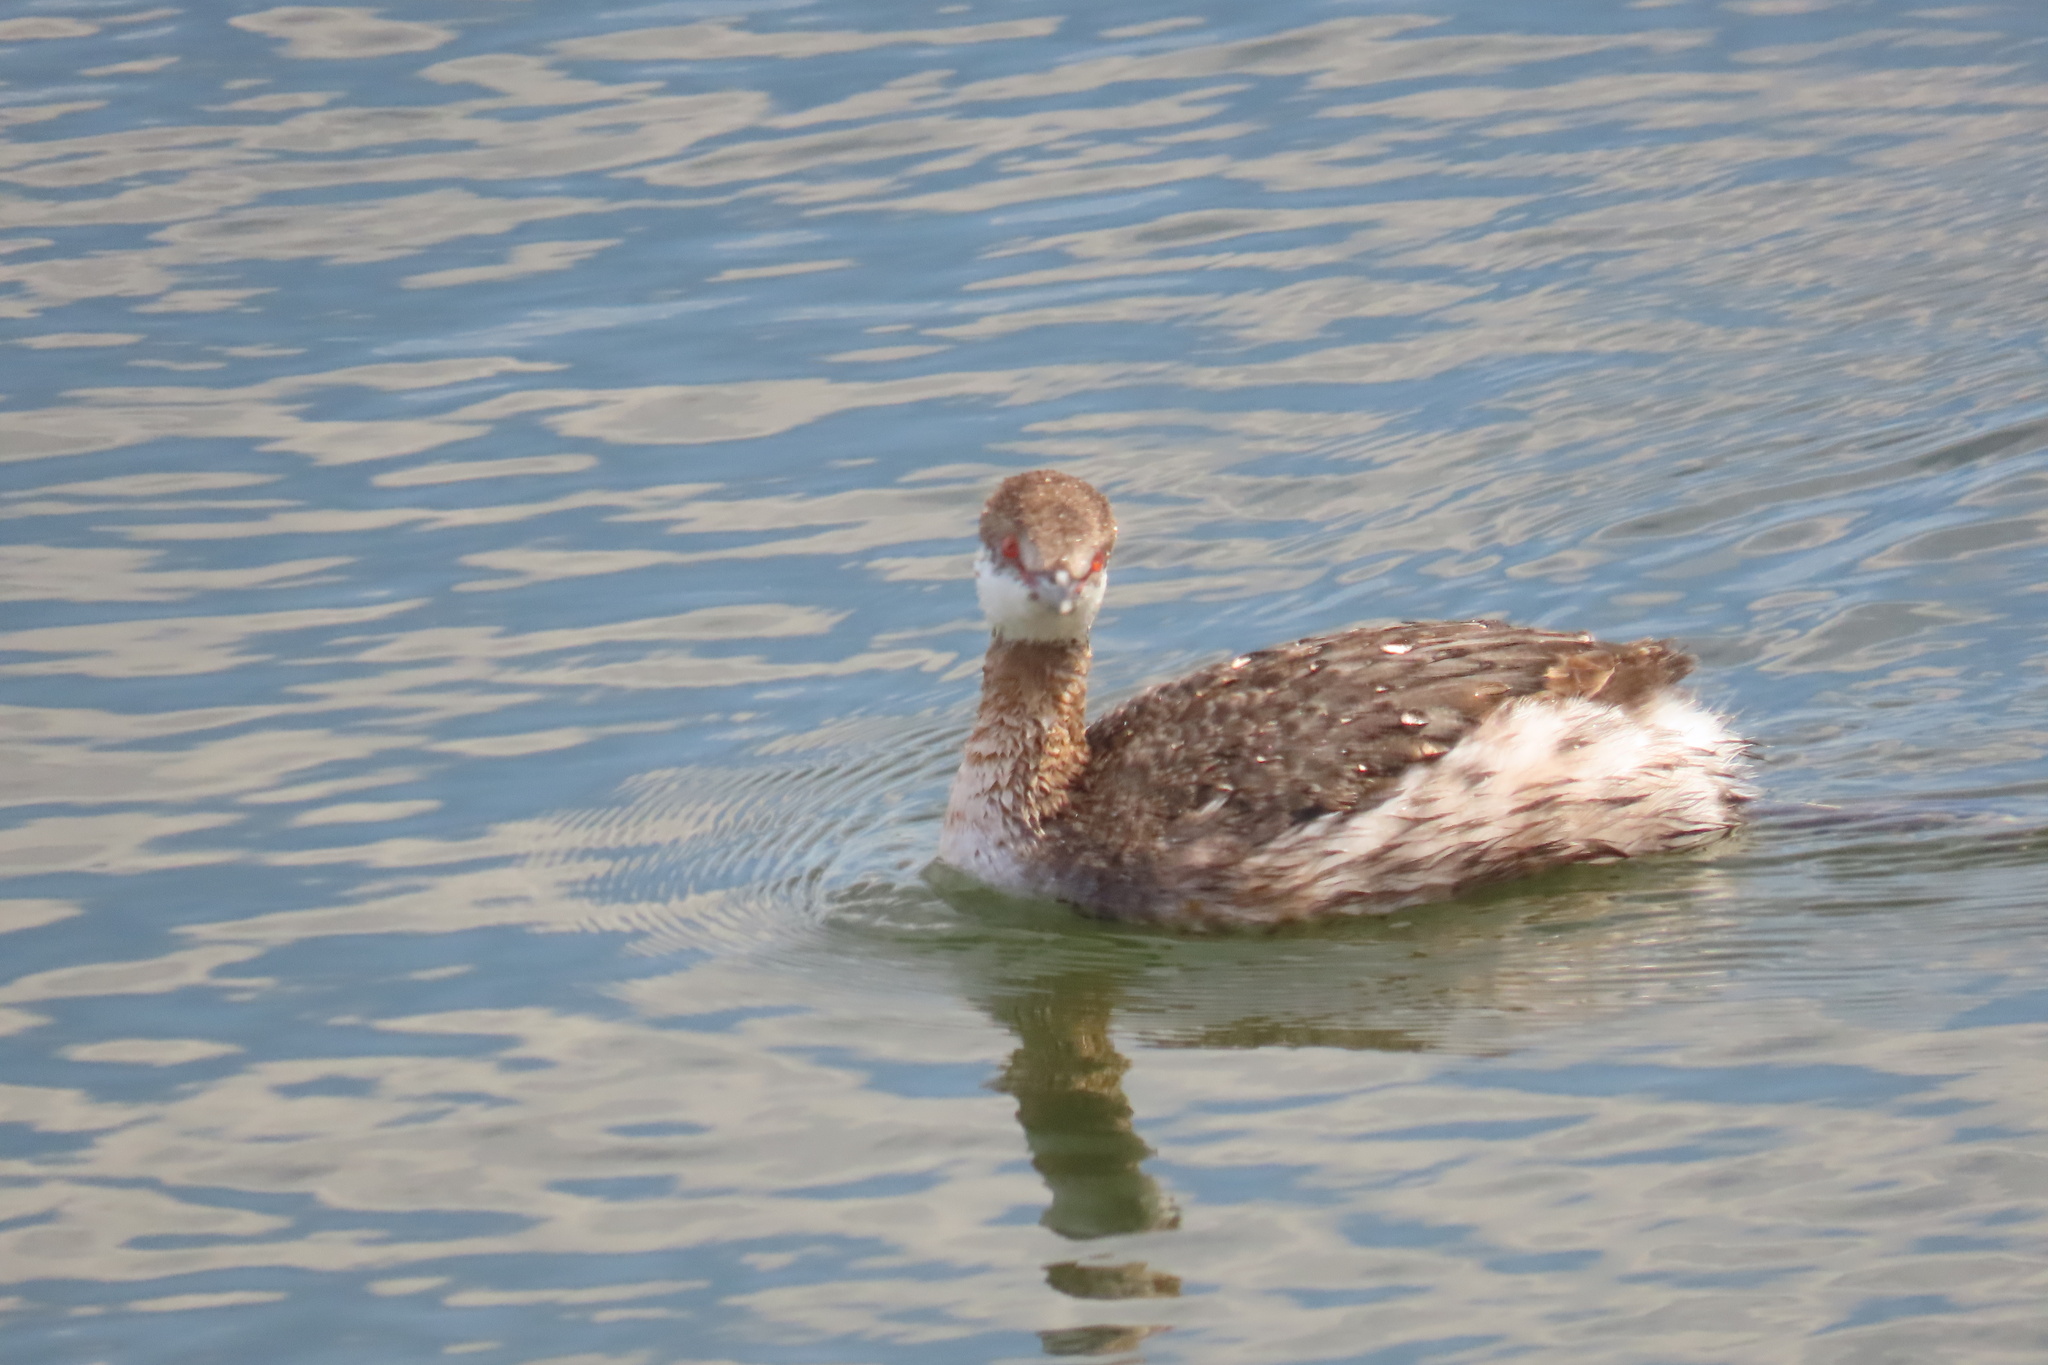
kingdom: Animalia
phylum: Chordata
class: Aves
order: Podicipediformes
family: Podicipedidae
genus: Podiceps
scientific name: Podiceps auritus
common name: Horned grebe
